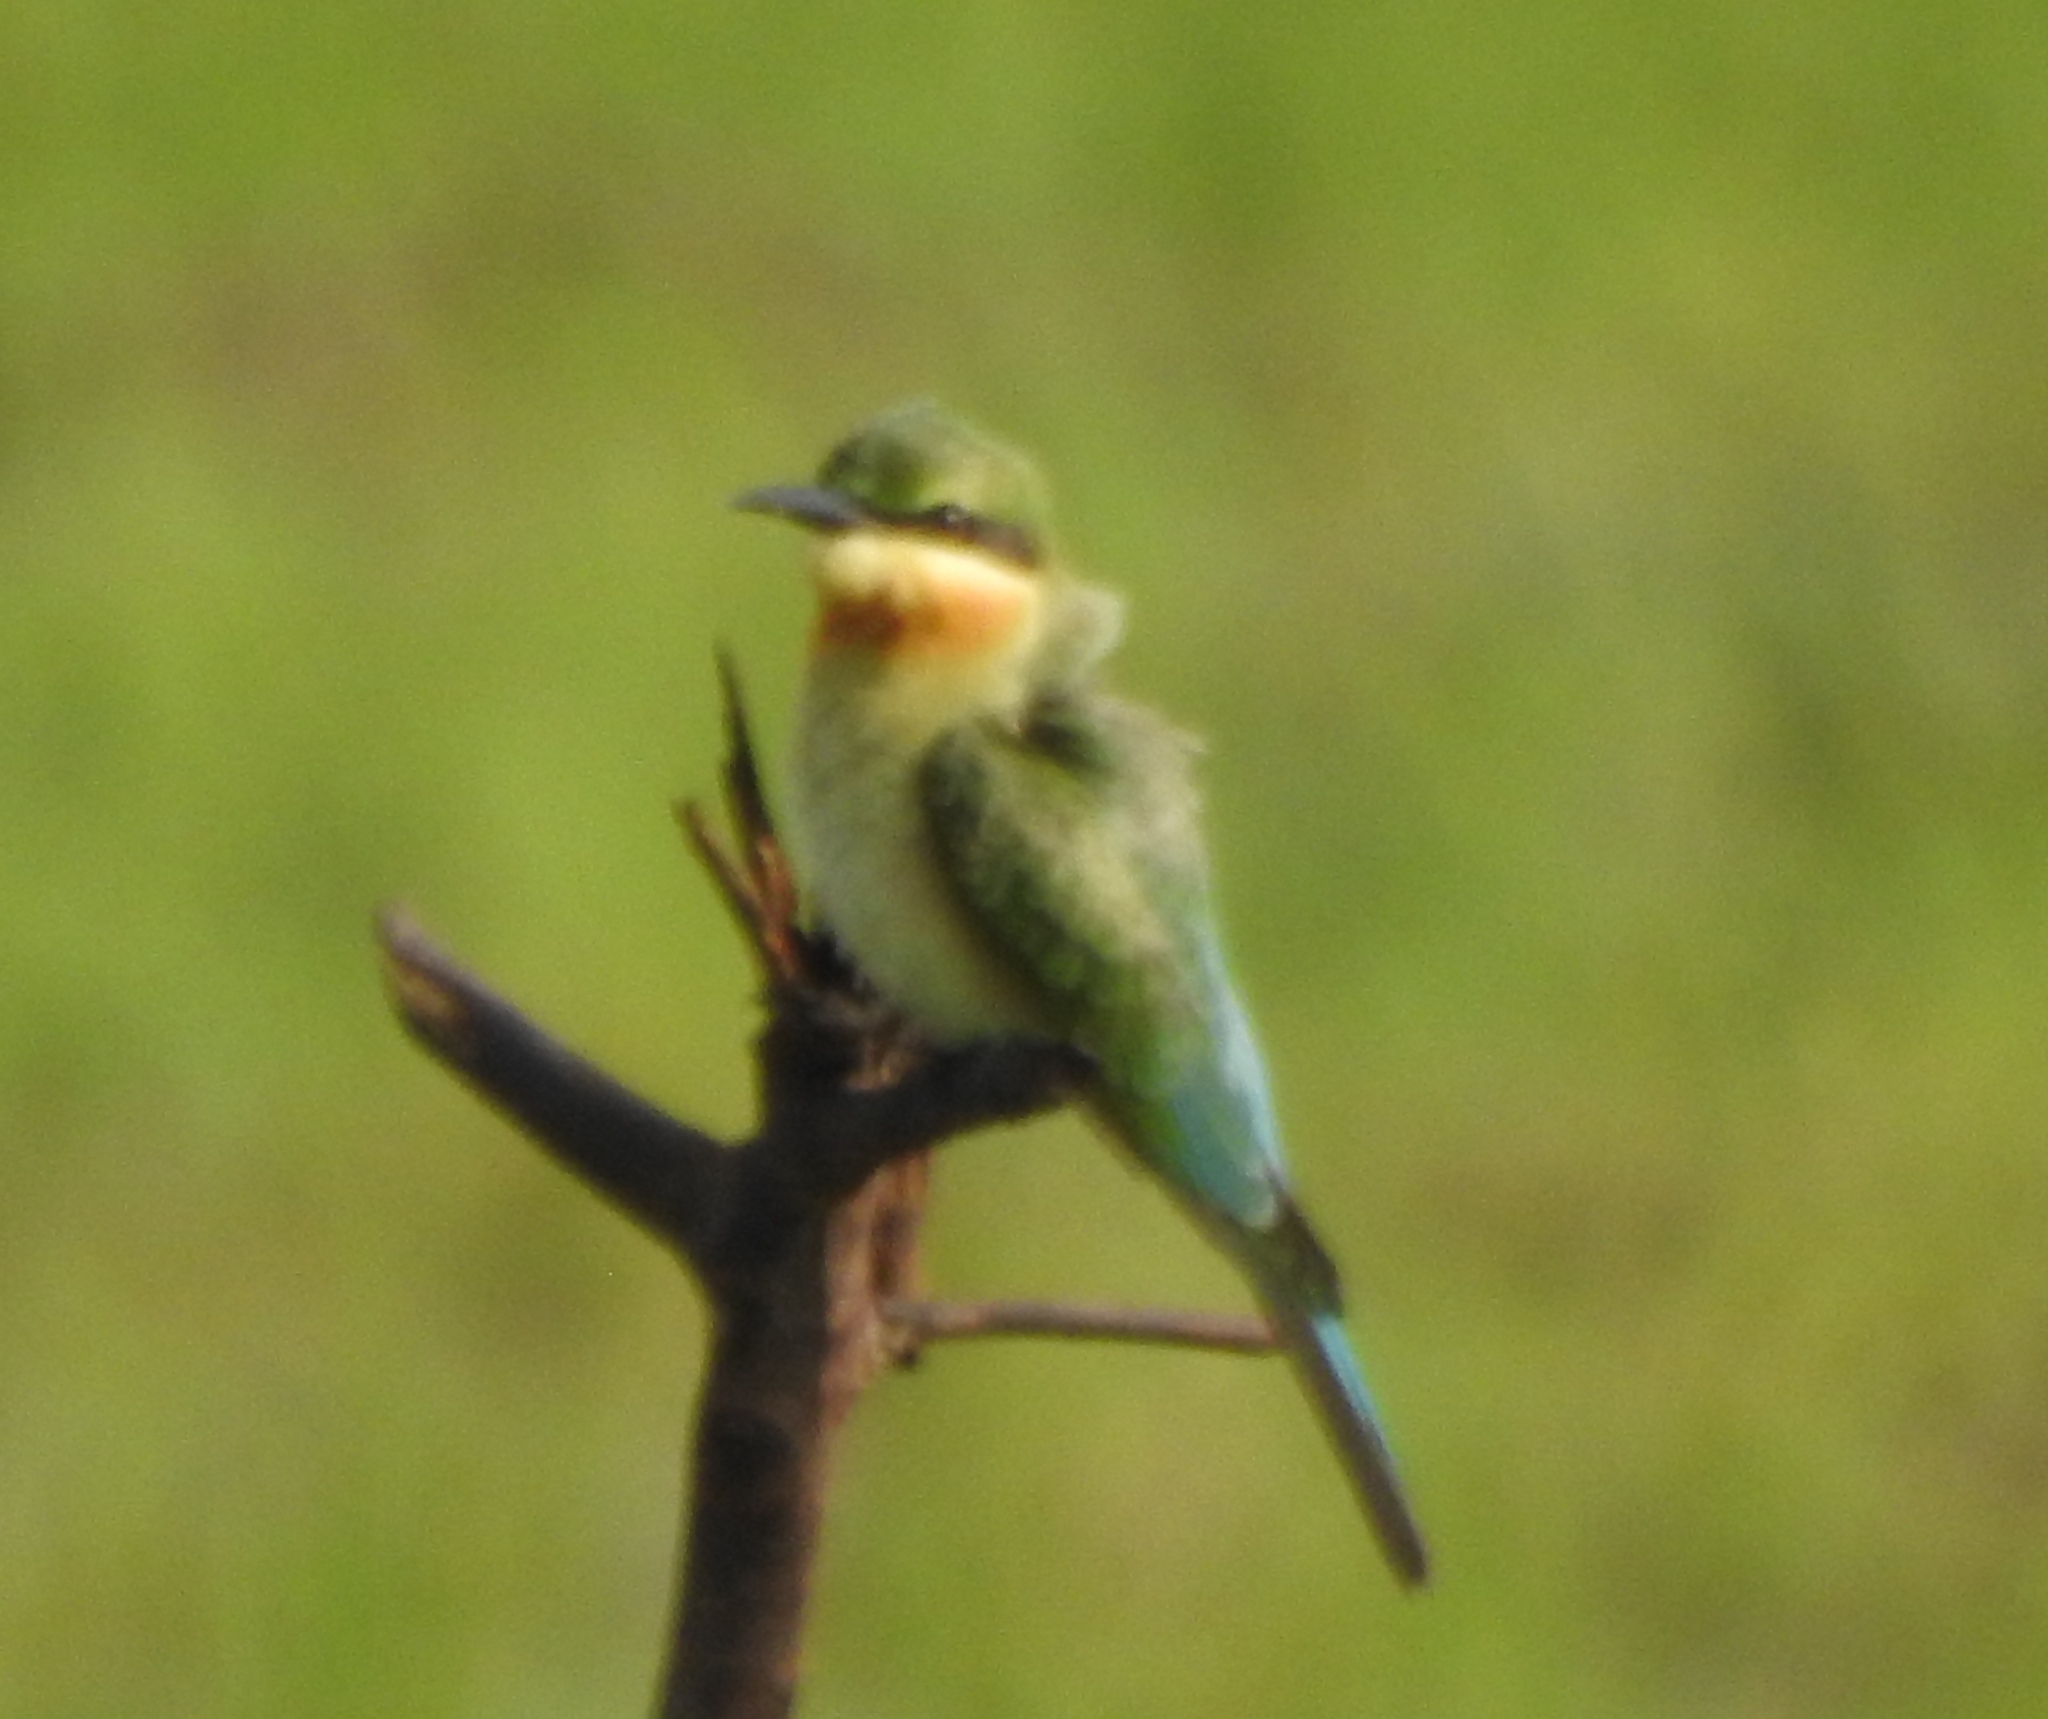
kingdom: Animalia
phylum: Chordata
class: Aves
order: Coraciiformes
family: Meropidae
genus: Merops
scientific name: Merops philippinus
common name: Blue-tailed bee-eater
